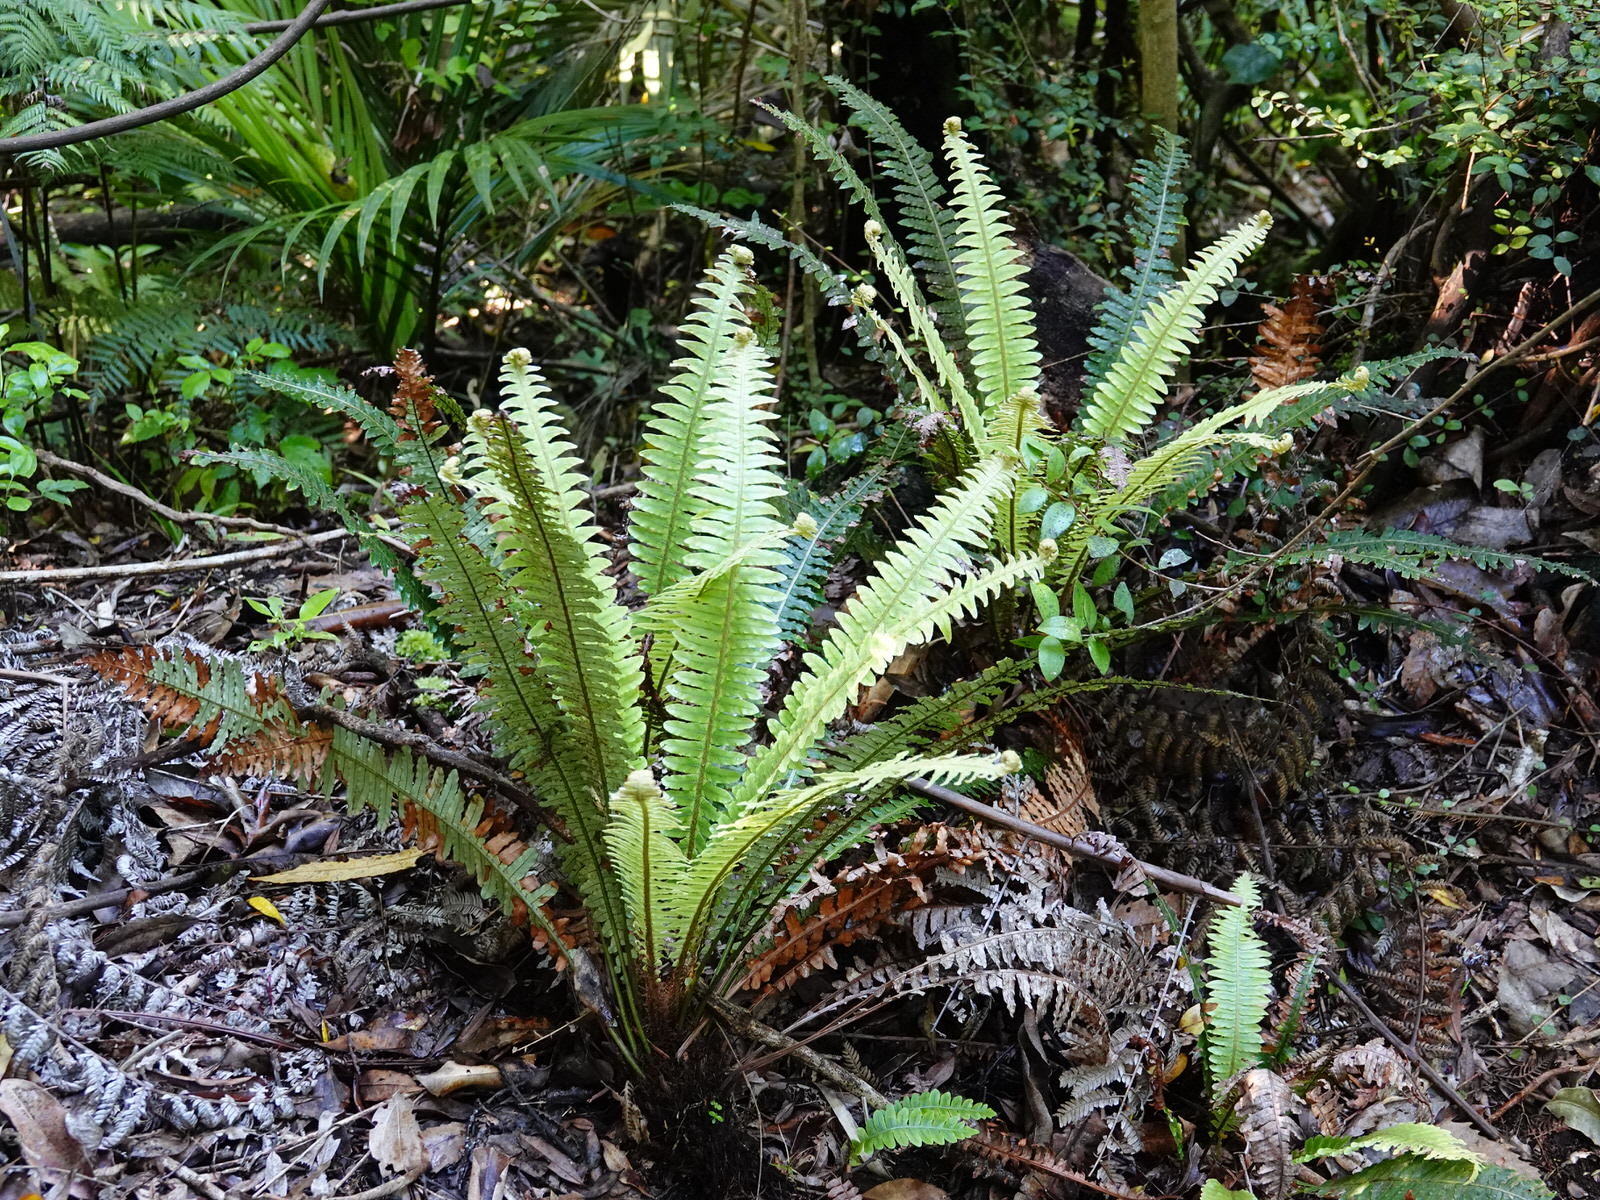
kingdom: Plantae
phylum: Tracheophyta
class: Polypodiopsida
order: Polypodiales
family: Blechnaceae
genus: Lomaria
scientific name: Lomaria discolor
